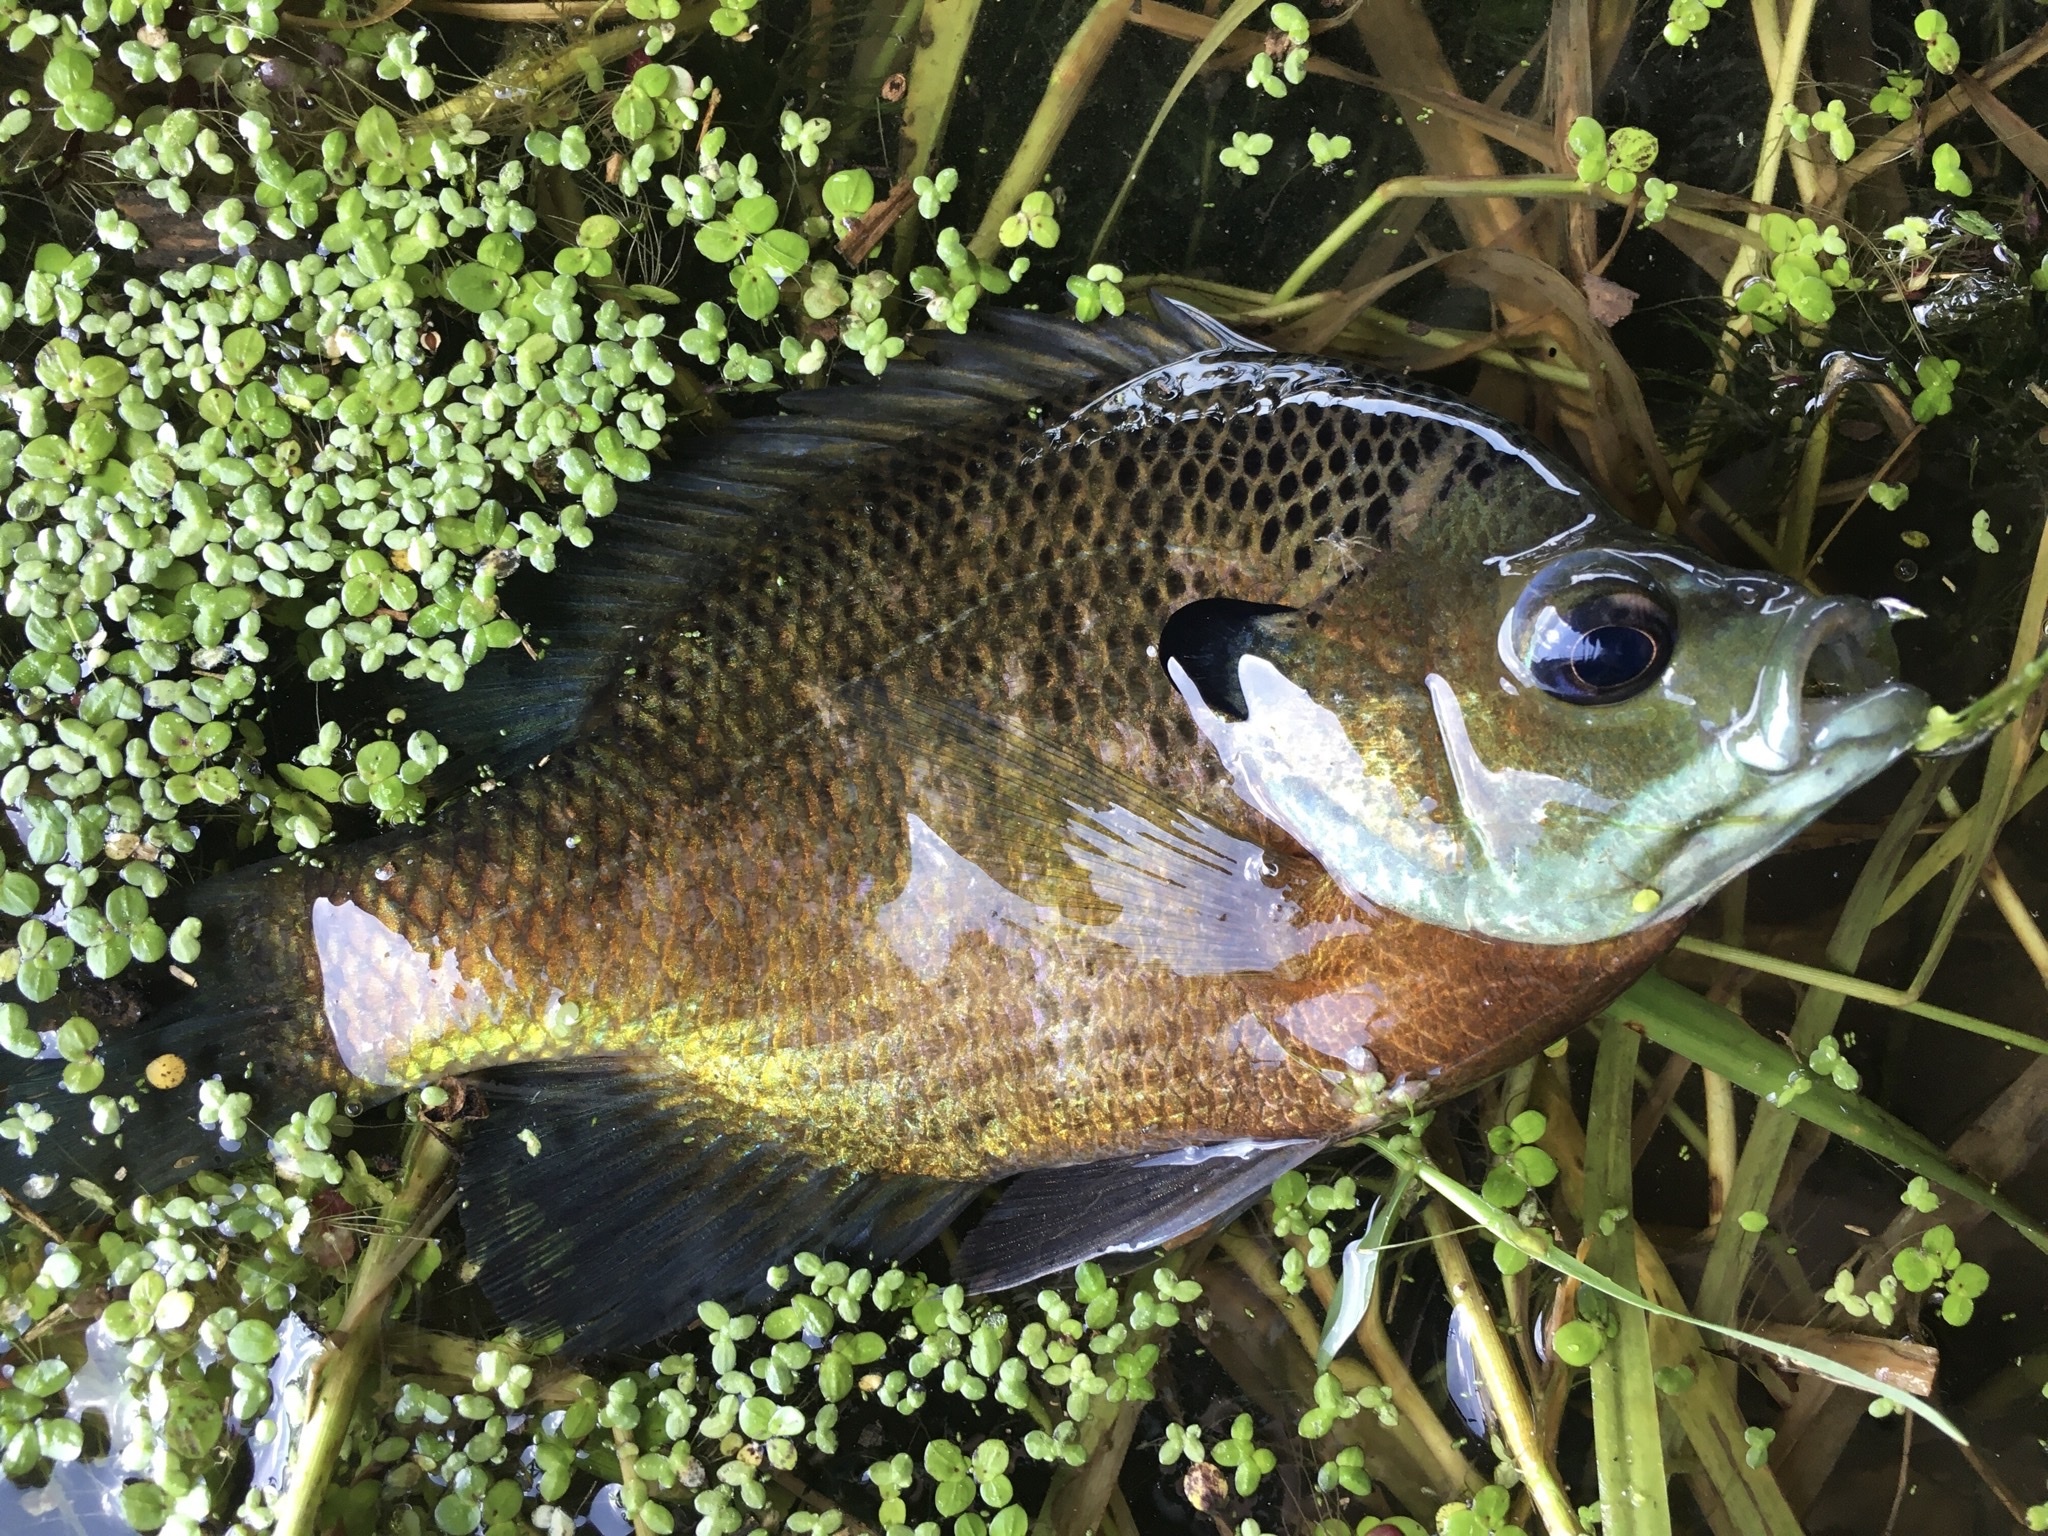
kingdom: Animalia
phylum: Chordata
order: Perciformes
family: Centrarchidae
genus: Lepomis
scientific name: Lepomis macrochirus
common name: Bluegill
